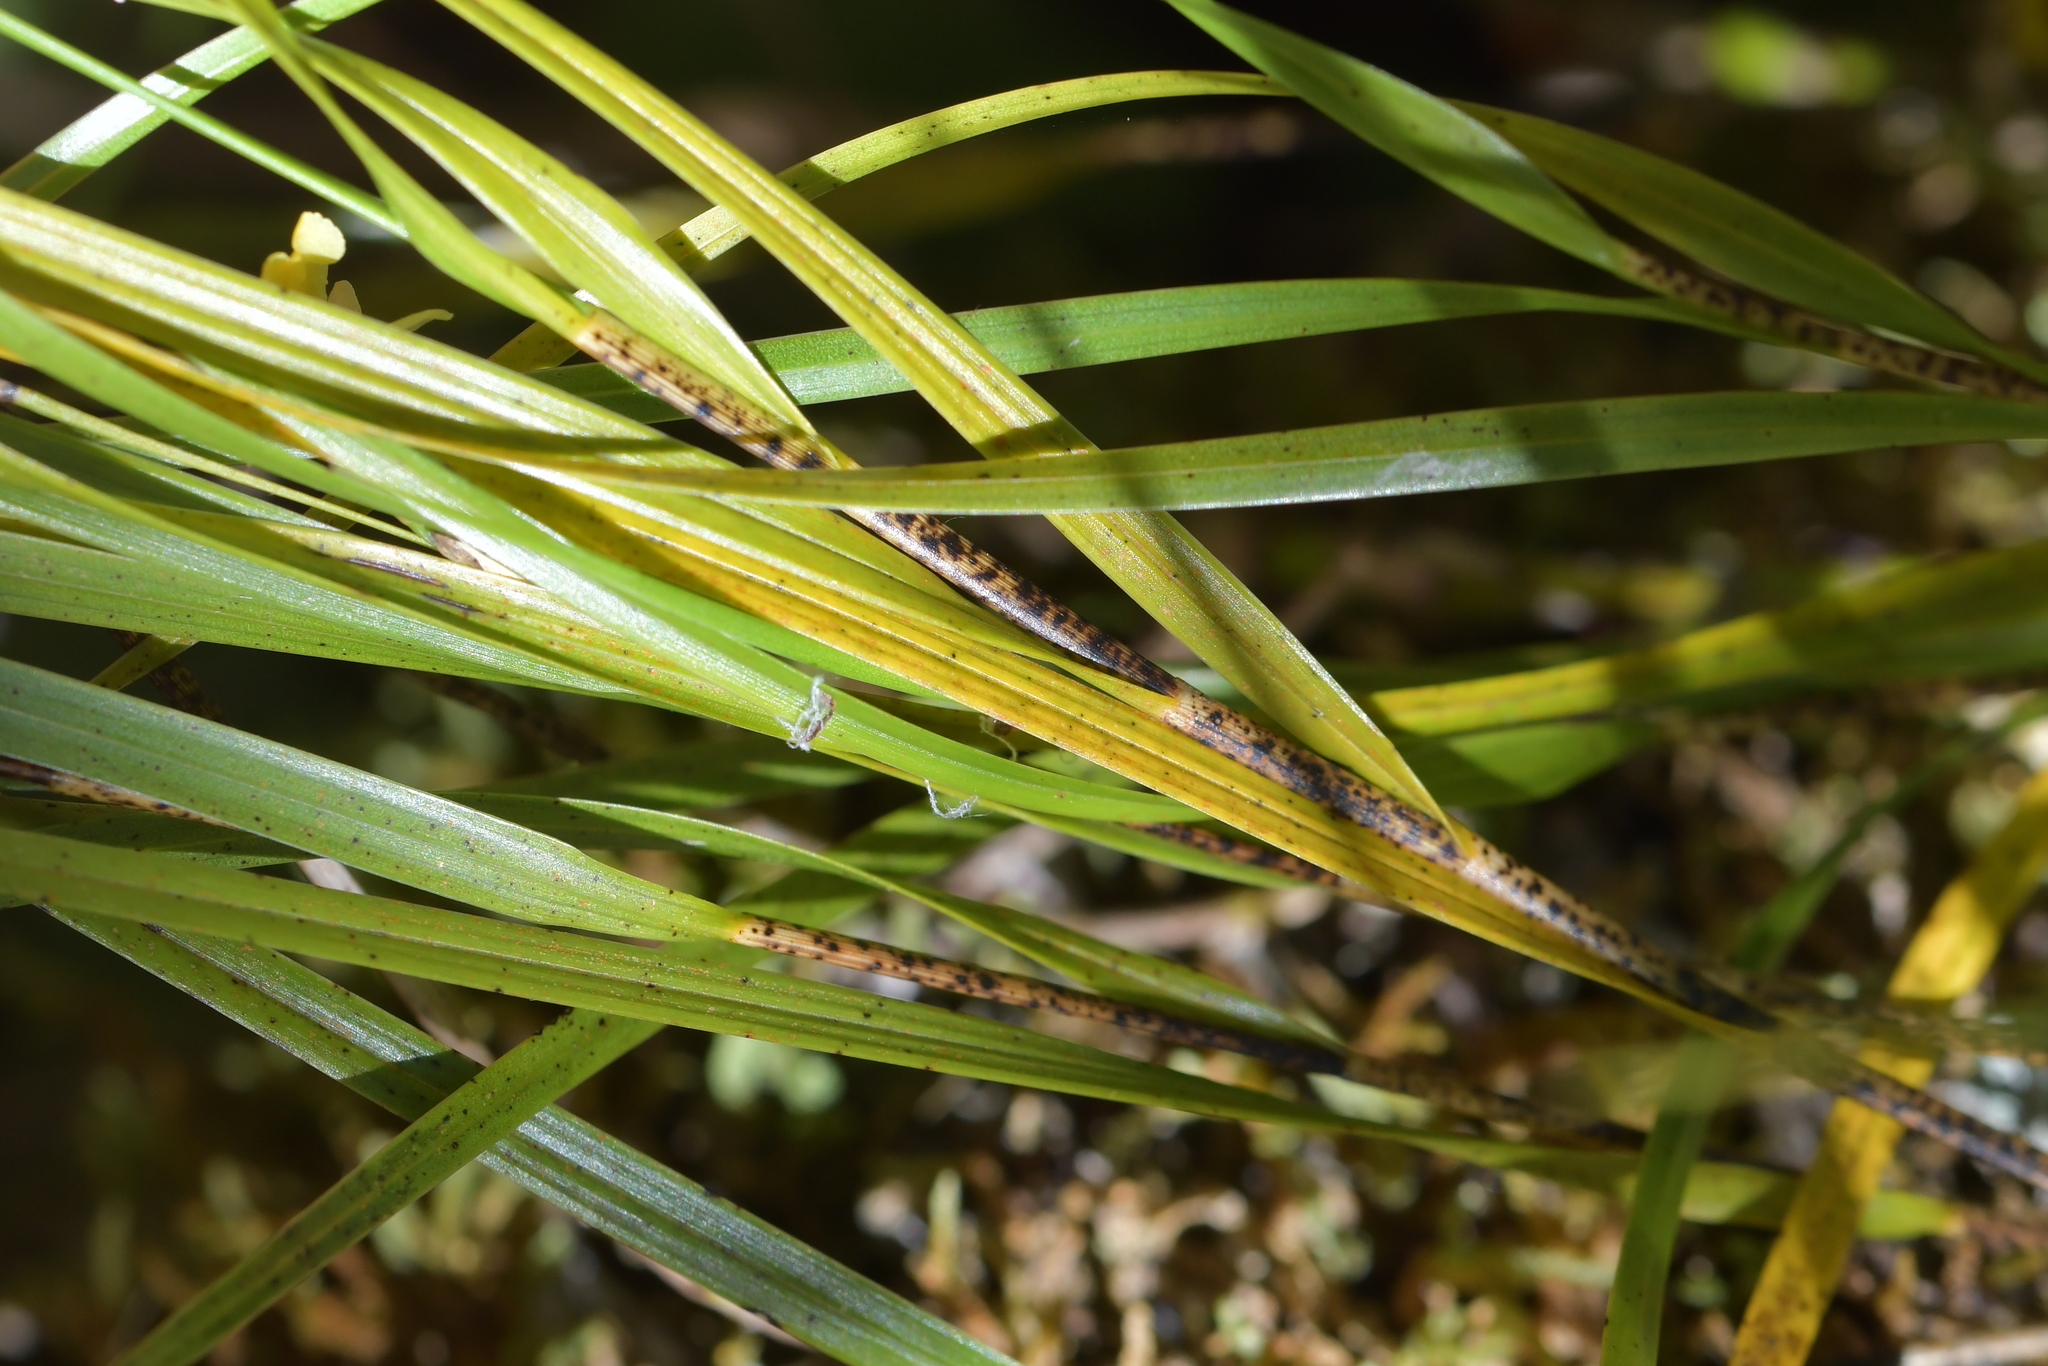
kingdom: Plantae
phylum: Tracheophyta
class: Liliopsida
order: Asparagales
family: Orchidaceae
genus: Earina
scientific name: Earina mucronata
